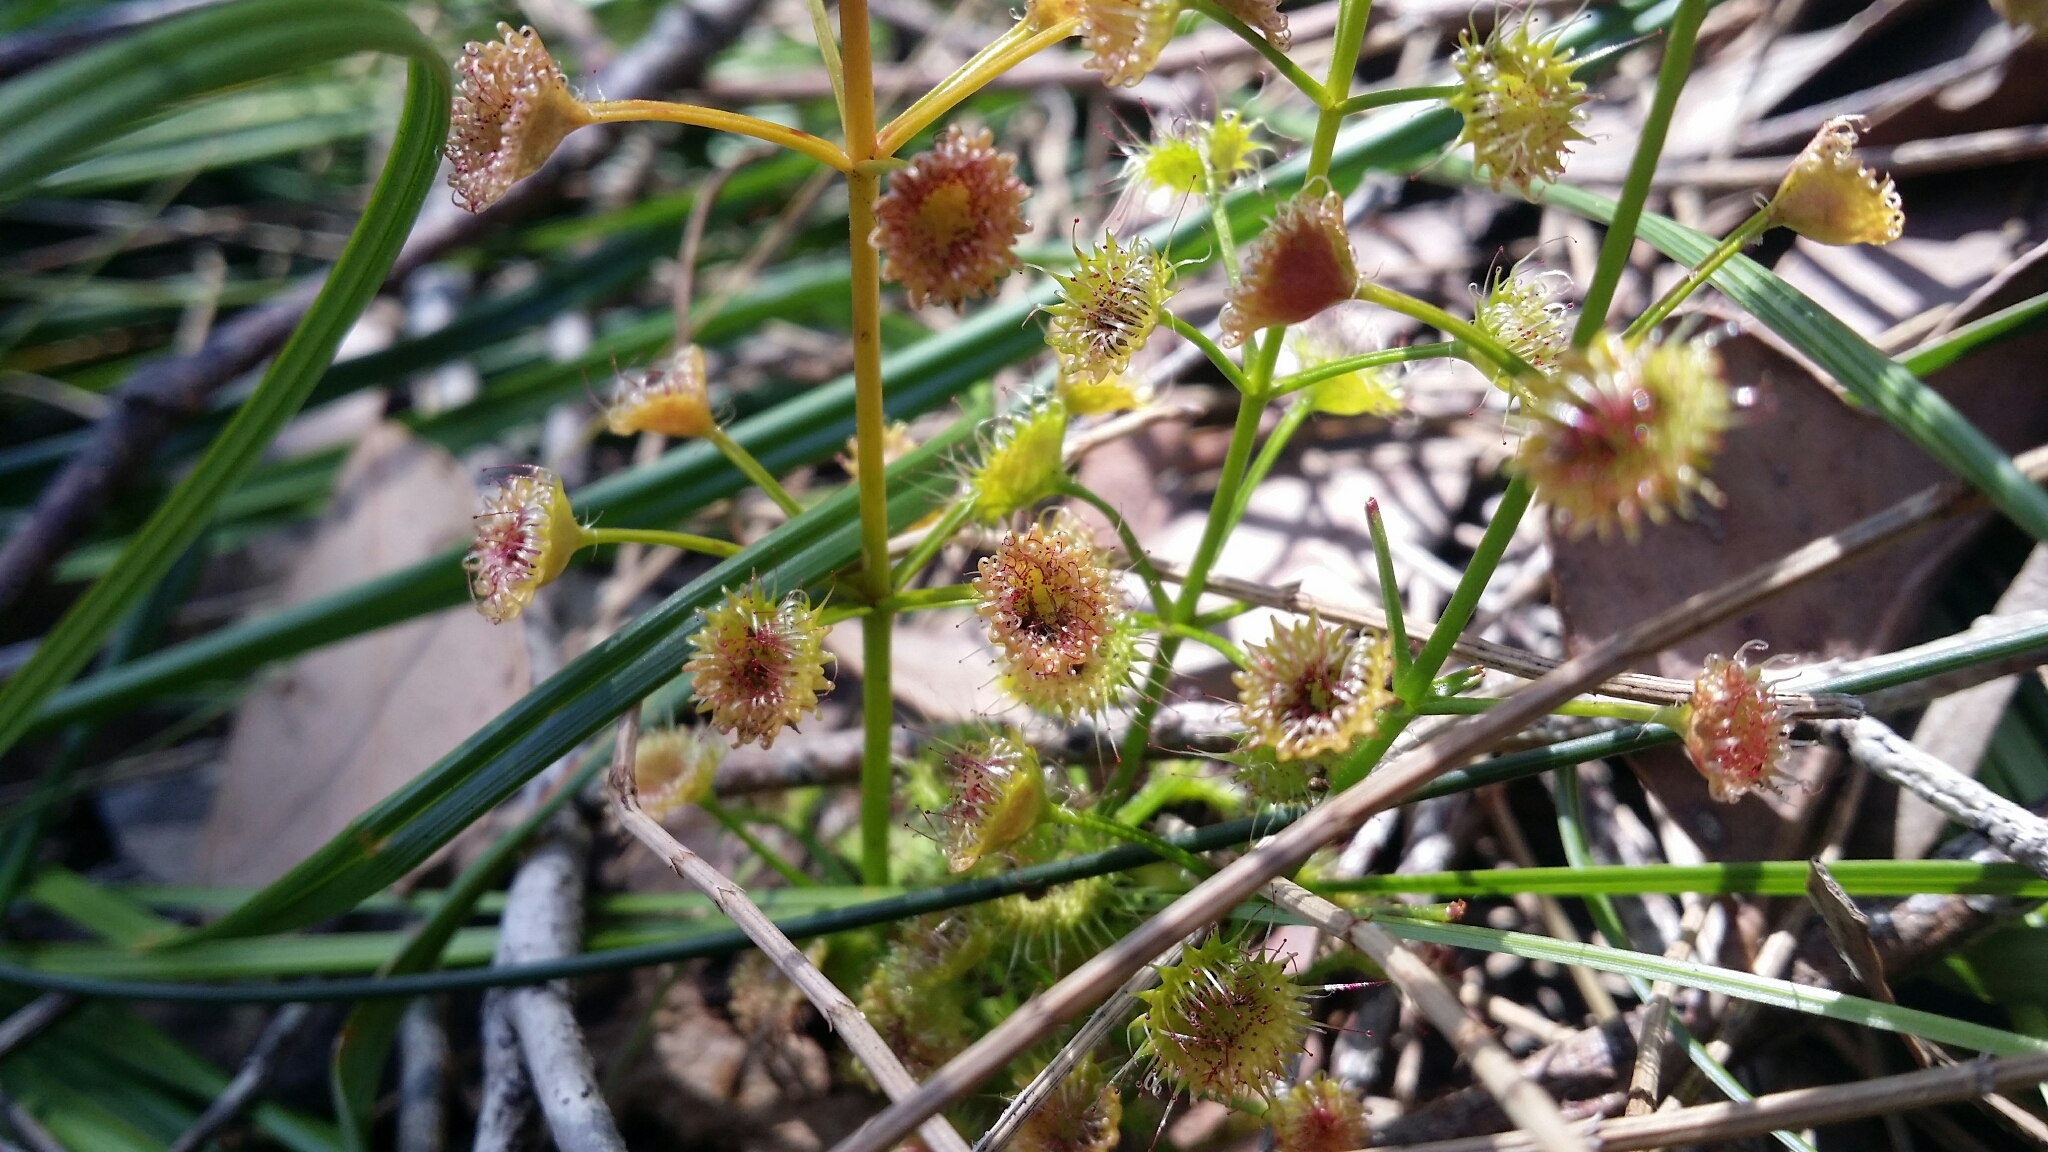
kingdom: Plantae
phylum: Tracheophyta
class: Magnoliopsida
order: Caryophyllales
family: Droseraceae
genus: Drosera
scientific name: Drosera stolonifera
